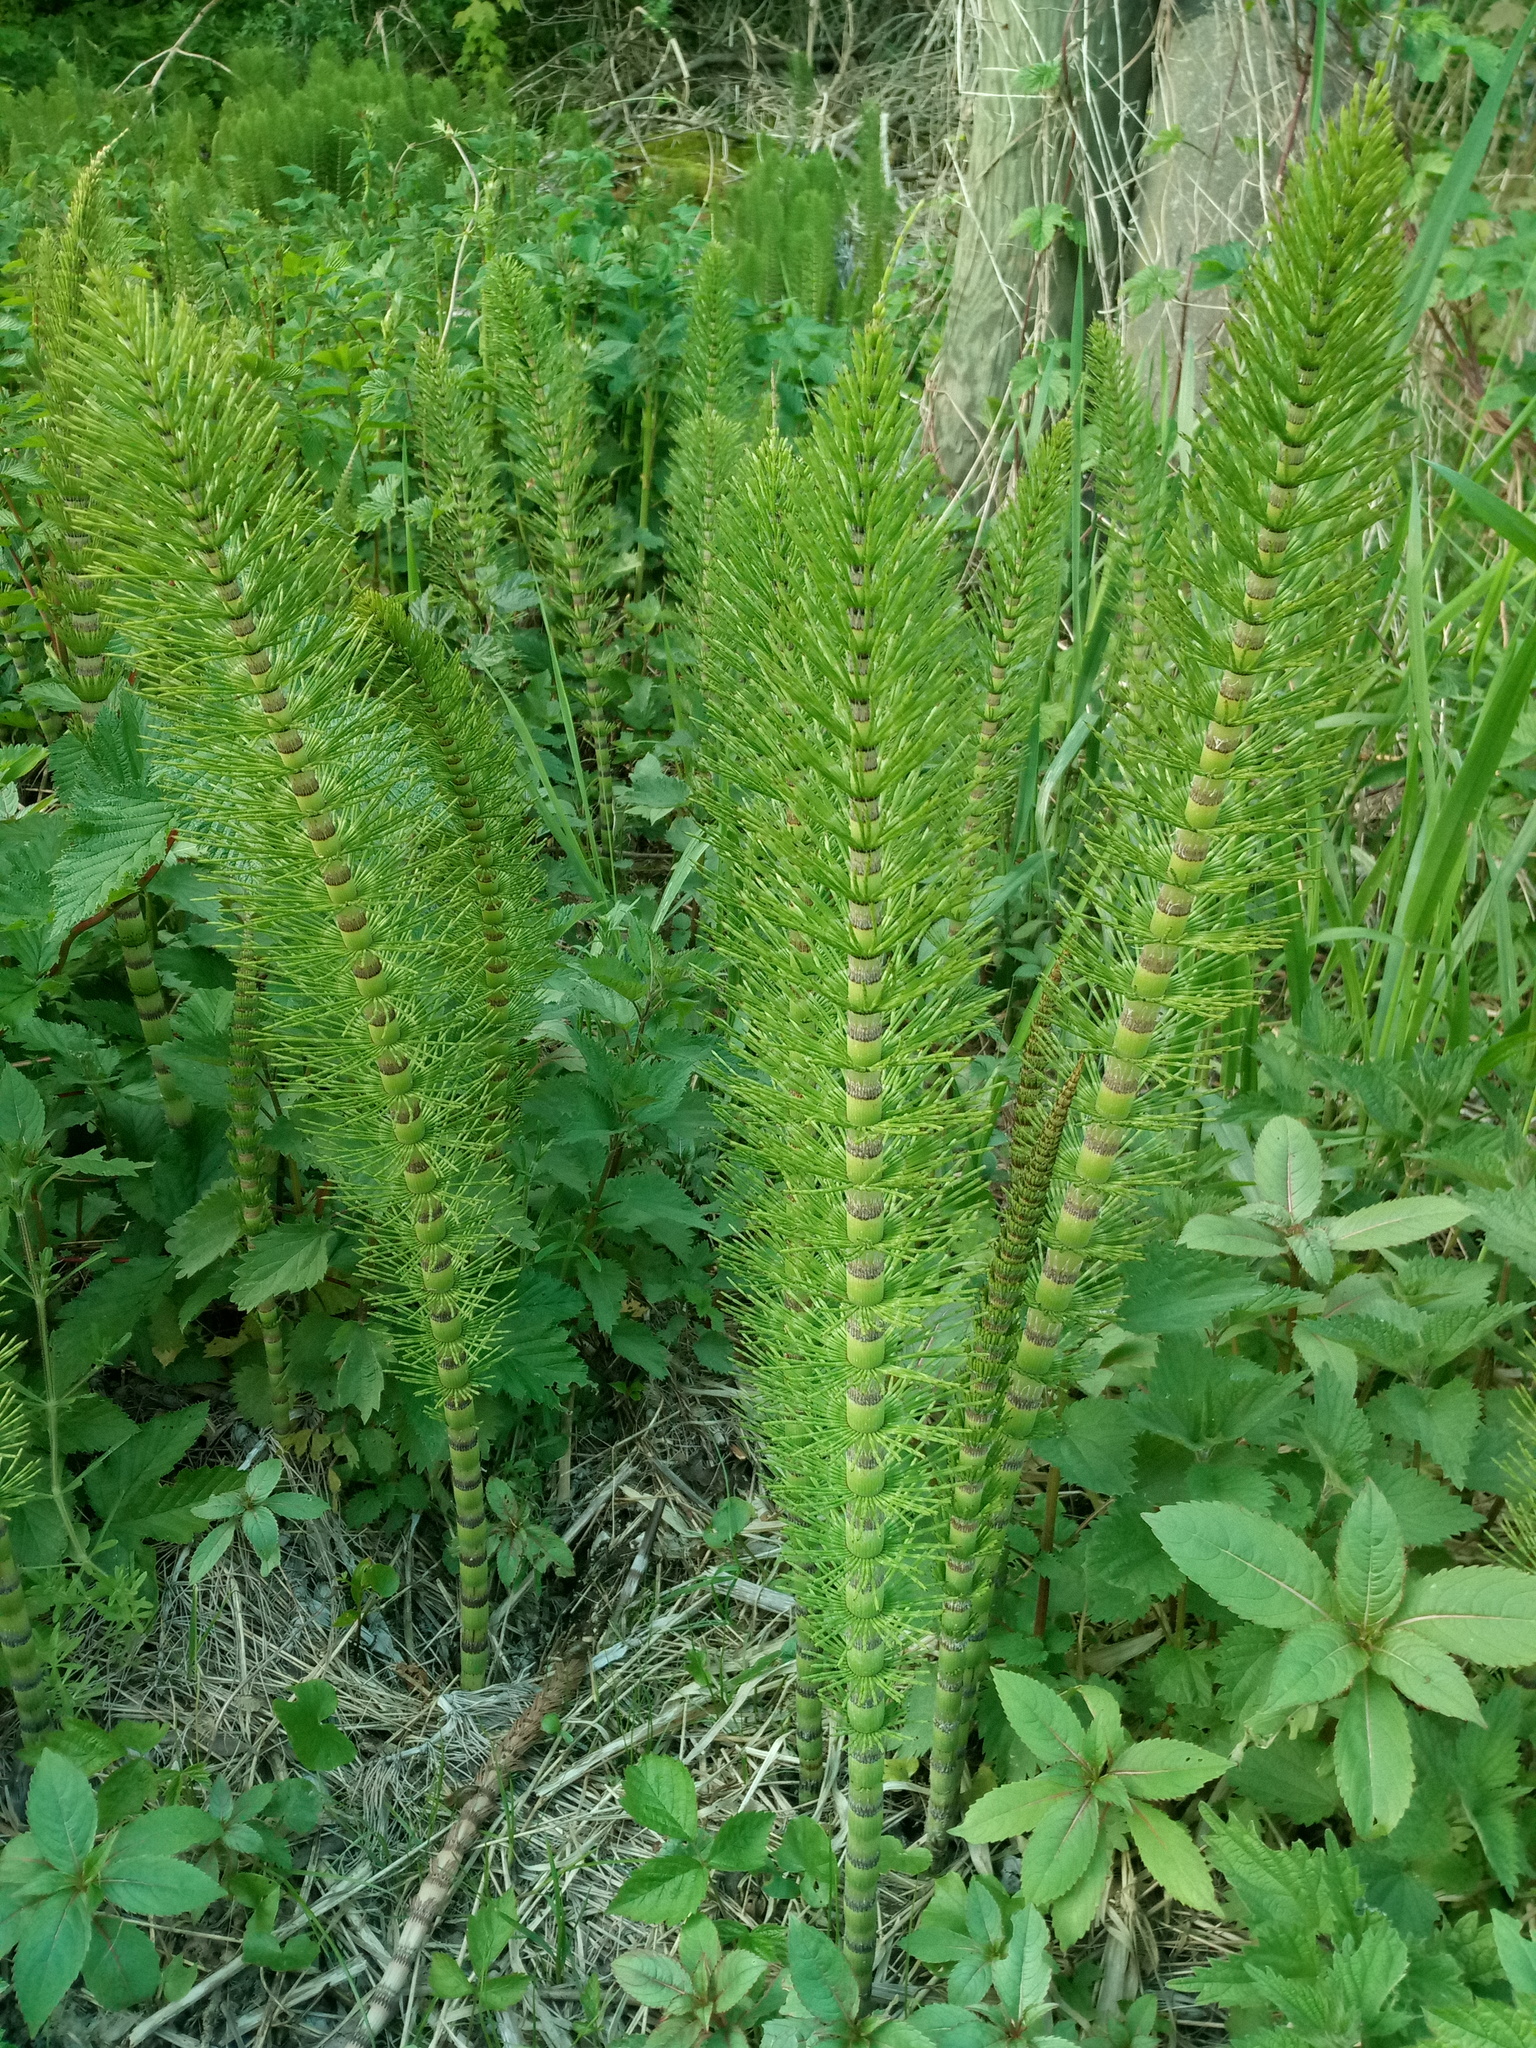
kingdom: Plantae
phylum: Tracheophyta
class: Polypodiopsida
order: Equisetales
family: Equisetaceae
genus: Equisetum
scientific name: Equisetum telmateia
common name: Great horsetail
